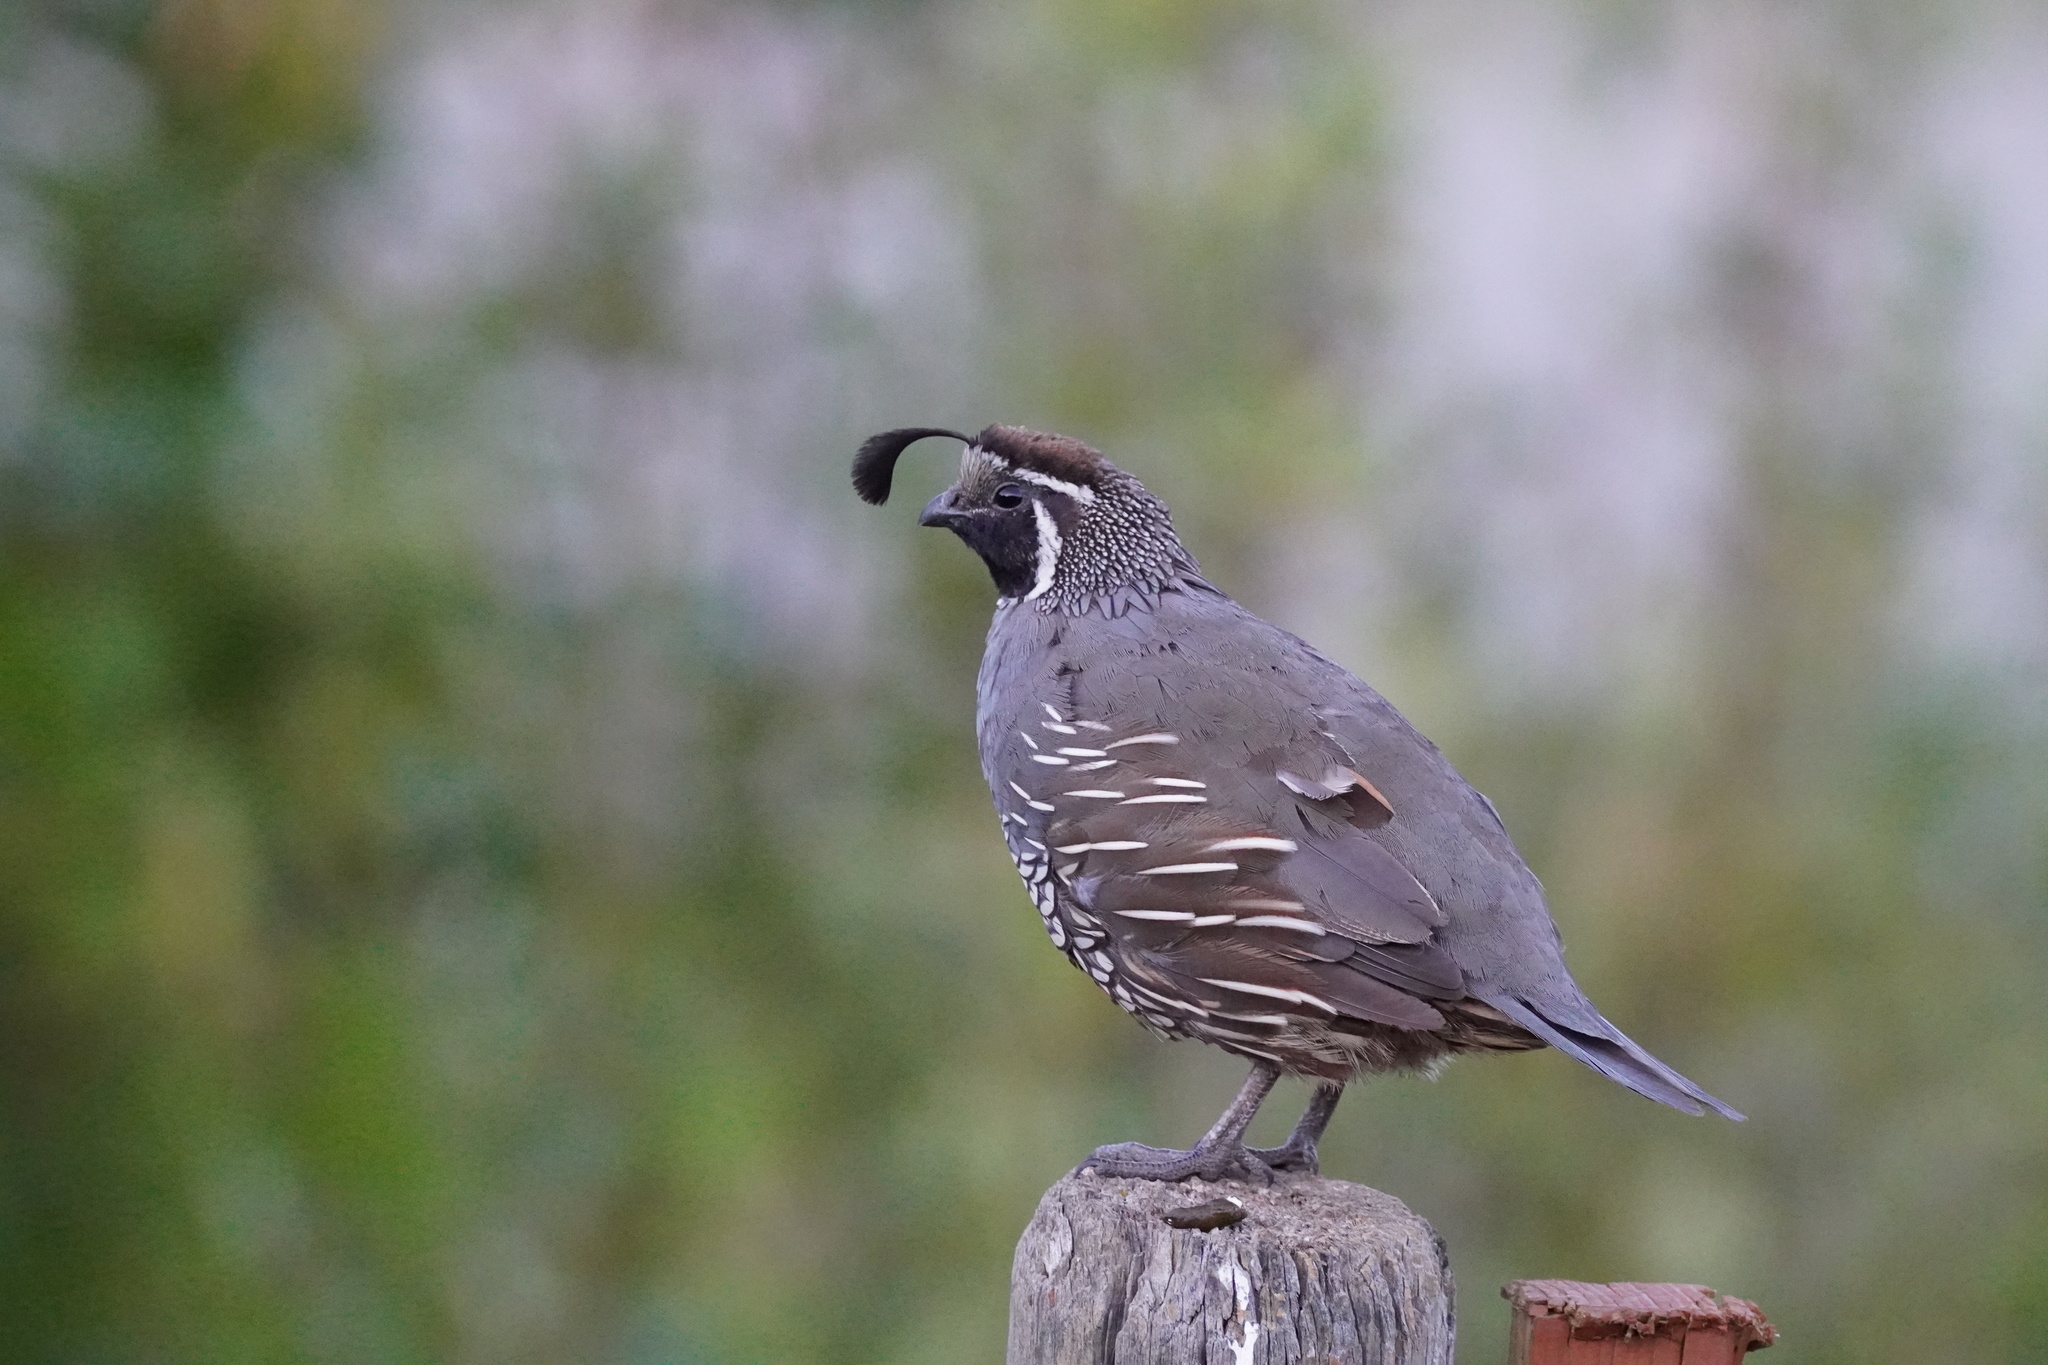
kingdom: Animalia
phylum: Chordata
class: Aves
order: Galliformes
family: Odontophoridae
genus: Callipepla
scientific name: Callipepla californica
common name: California quail
